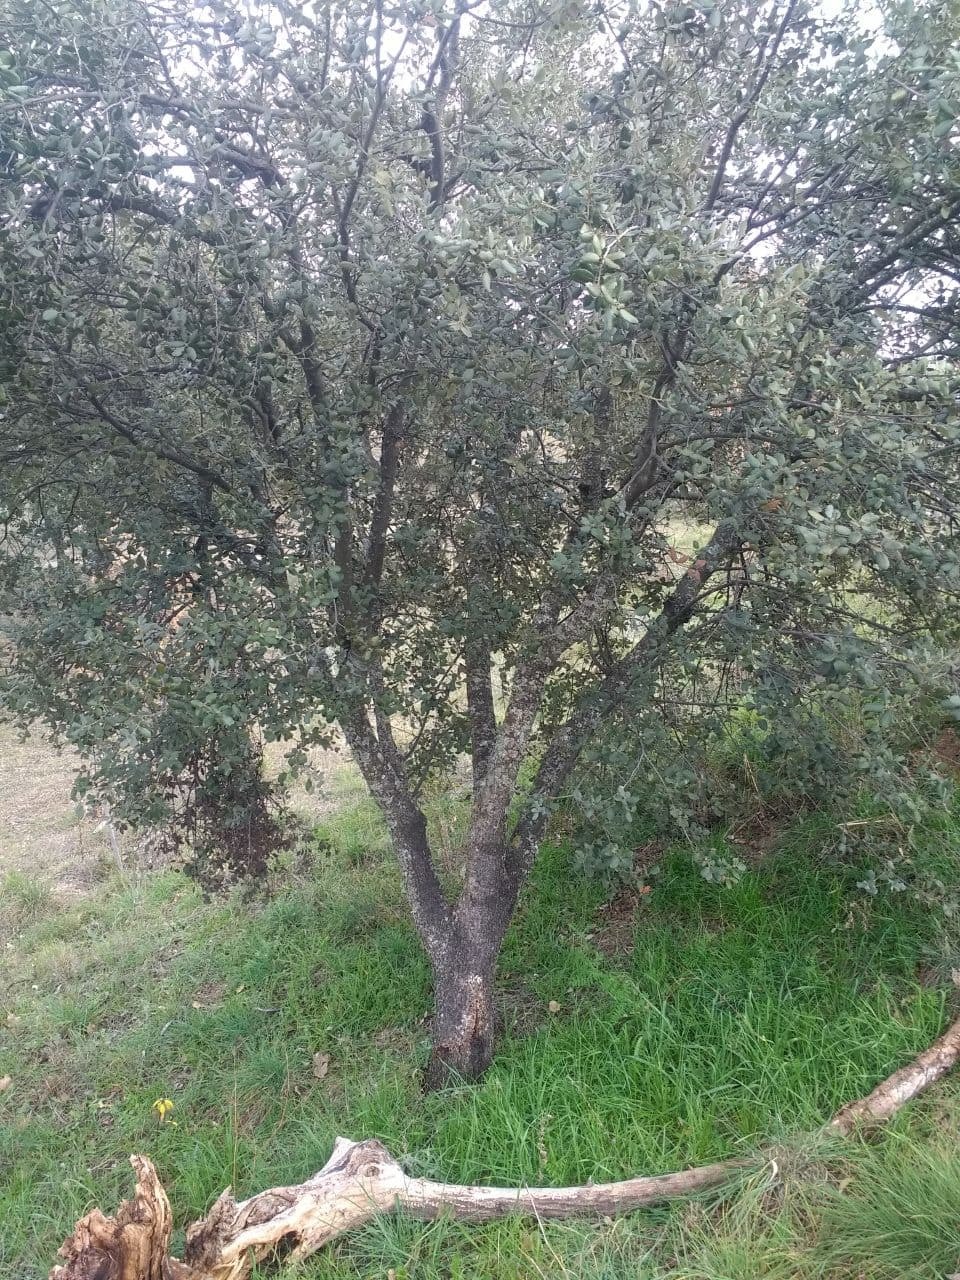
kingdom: Plantae
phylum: Tracheophyta
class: Magnoliopsida
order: Fagales
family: Fagaceae
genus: Quercus
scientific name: Quercus rotundifolia
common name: Holm oak
